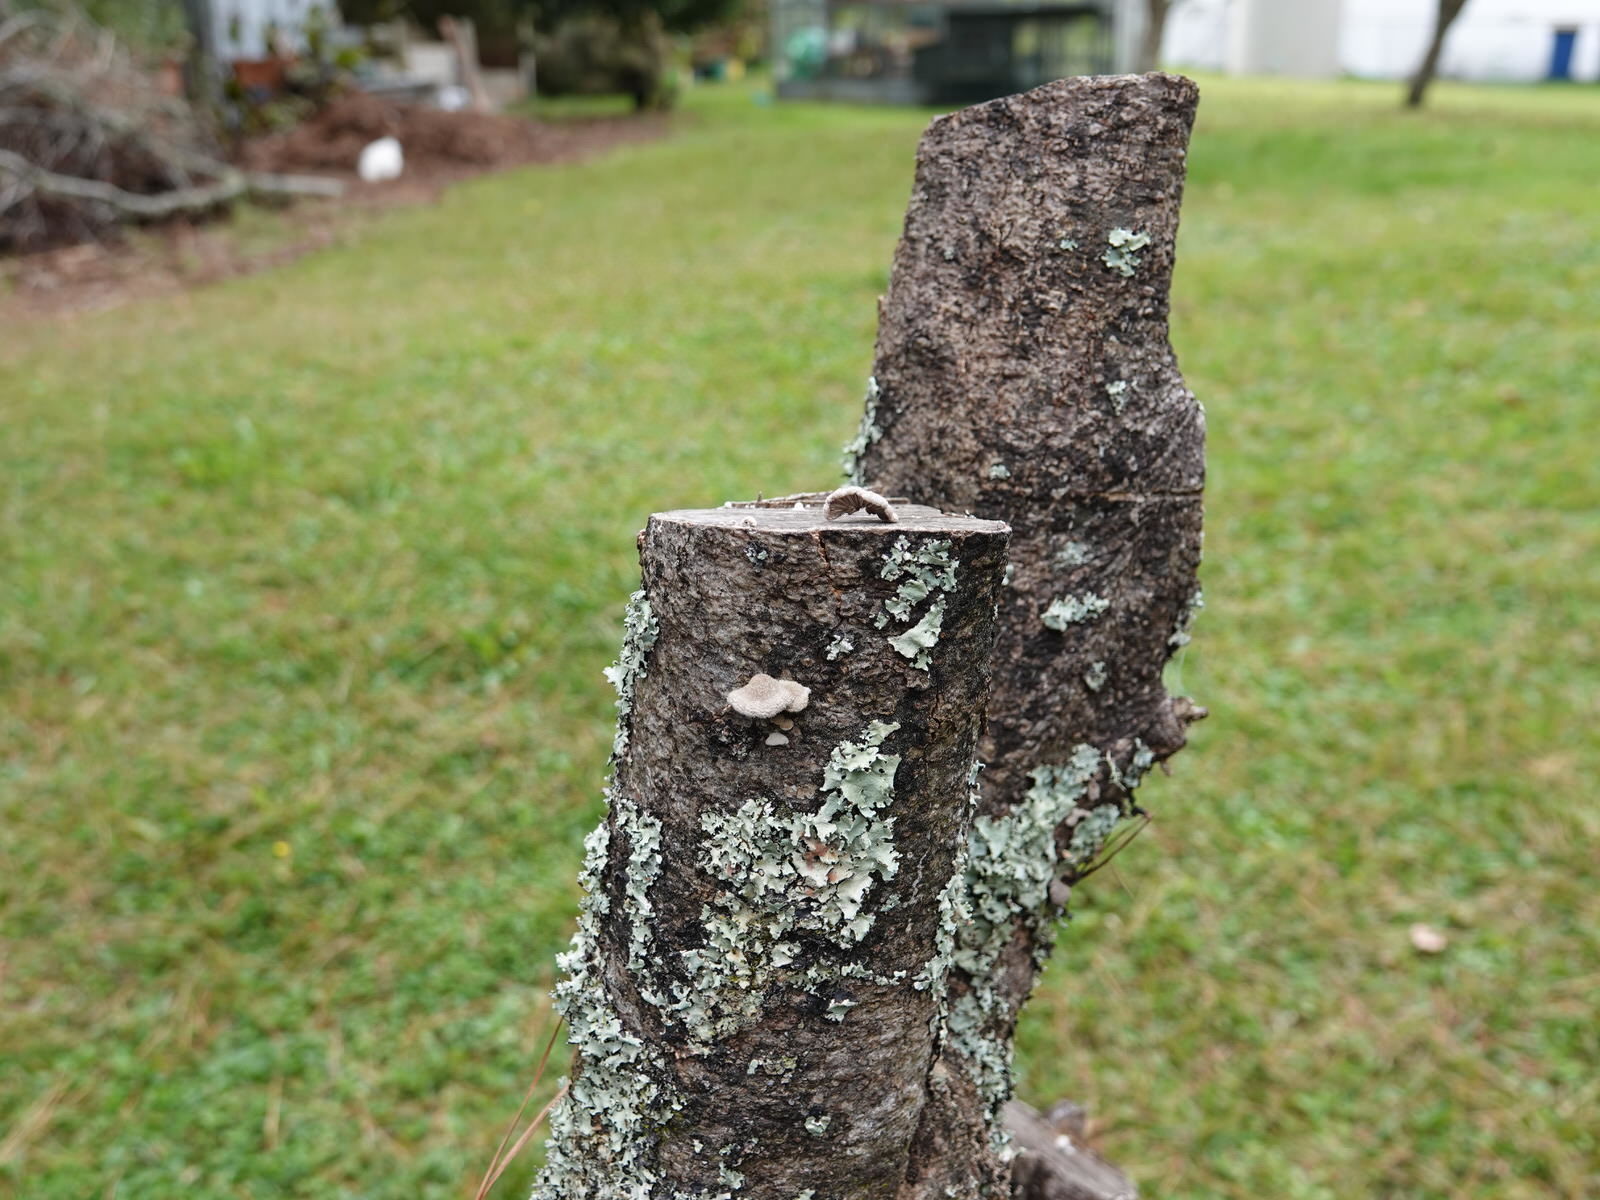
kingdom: Fungi
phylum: Basidiomycota
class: Agaricomycetes
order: Agaricales
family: Schizophyllaceae
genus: Schizophyllum
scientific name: Schizophyllum commune
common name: Common porecrust
